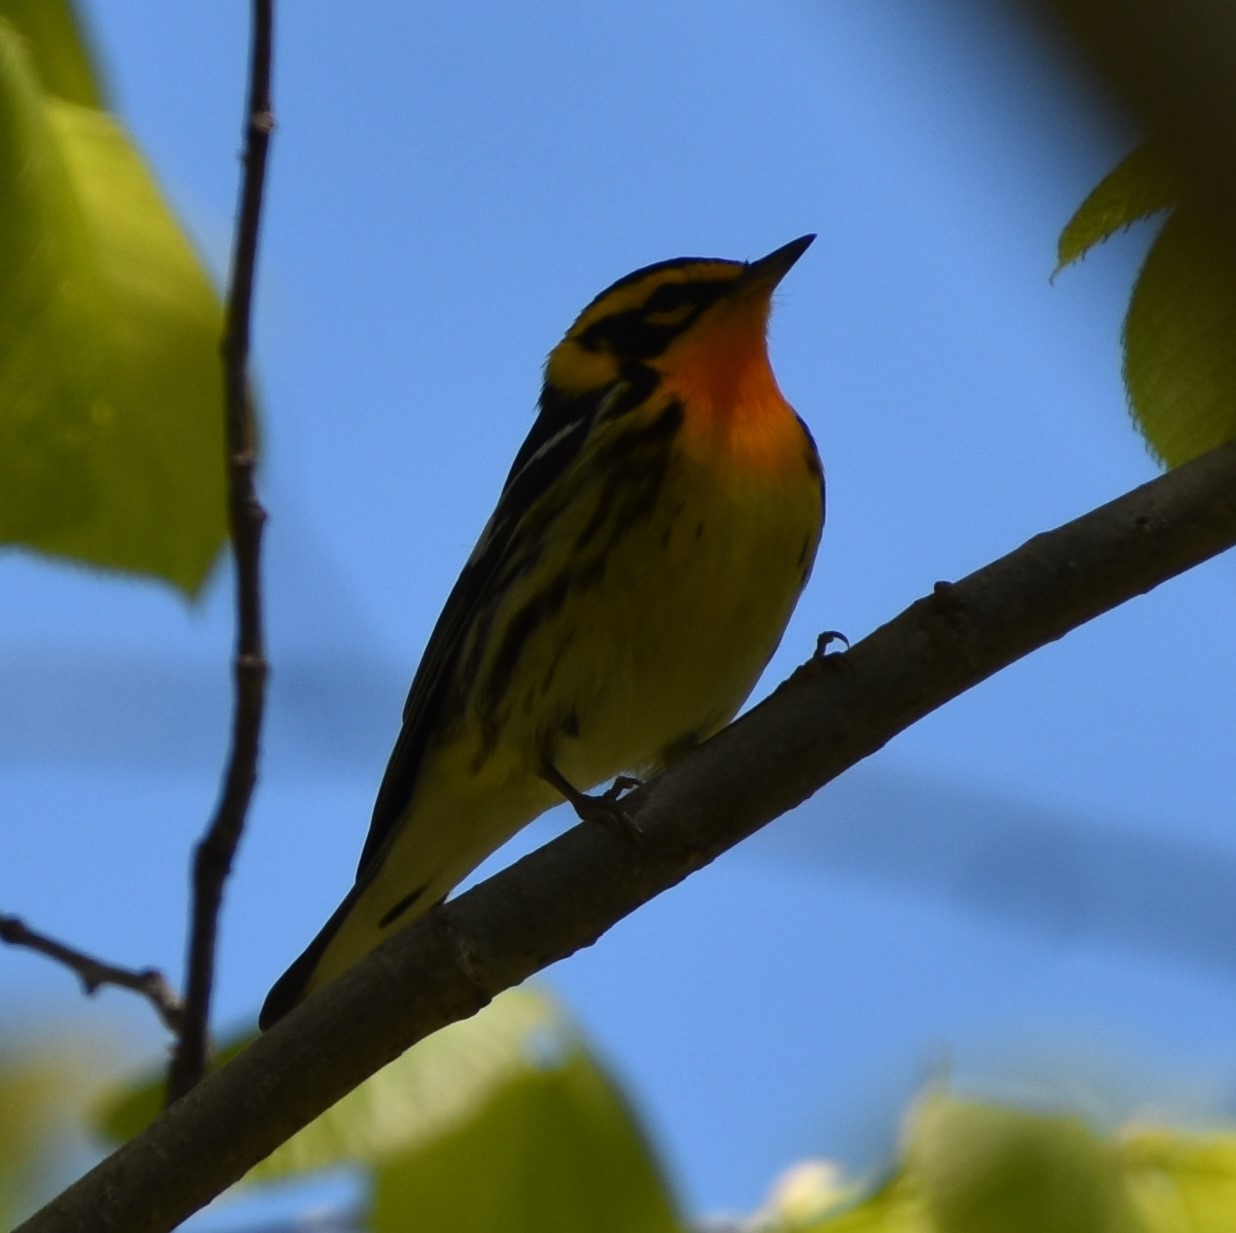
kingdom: Animalia
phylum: Chordata
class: Aves
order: Passeriformes
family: Parulidae
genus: Setophaga
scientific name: Setophaga fusca
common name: Blackburnian warbler
